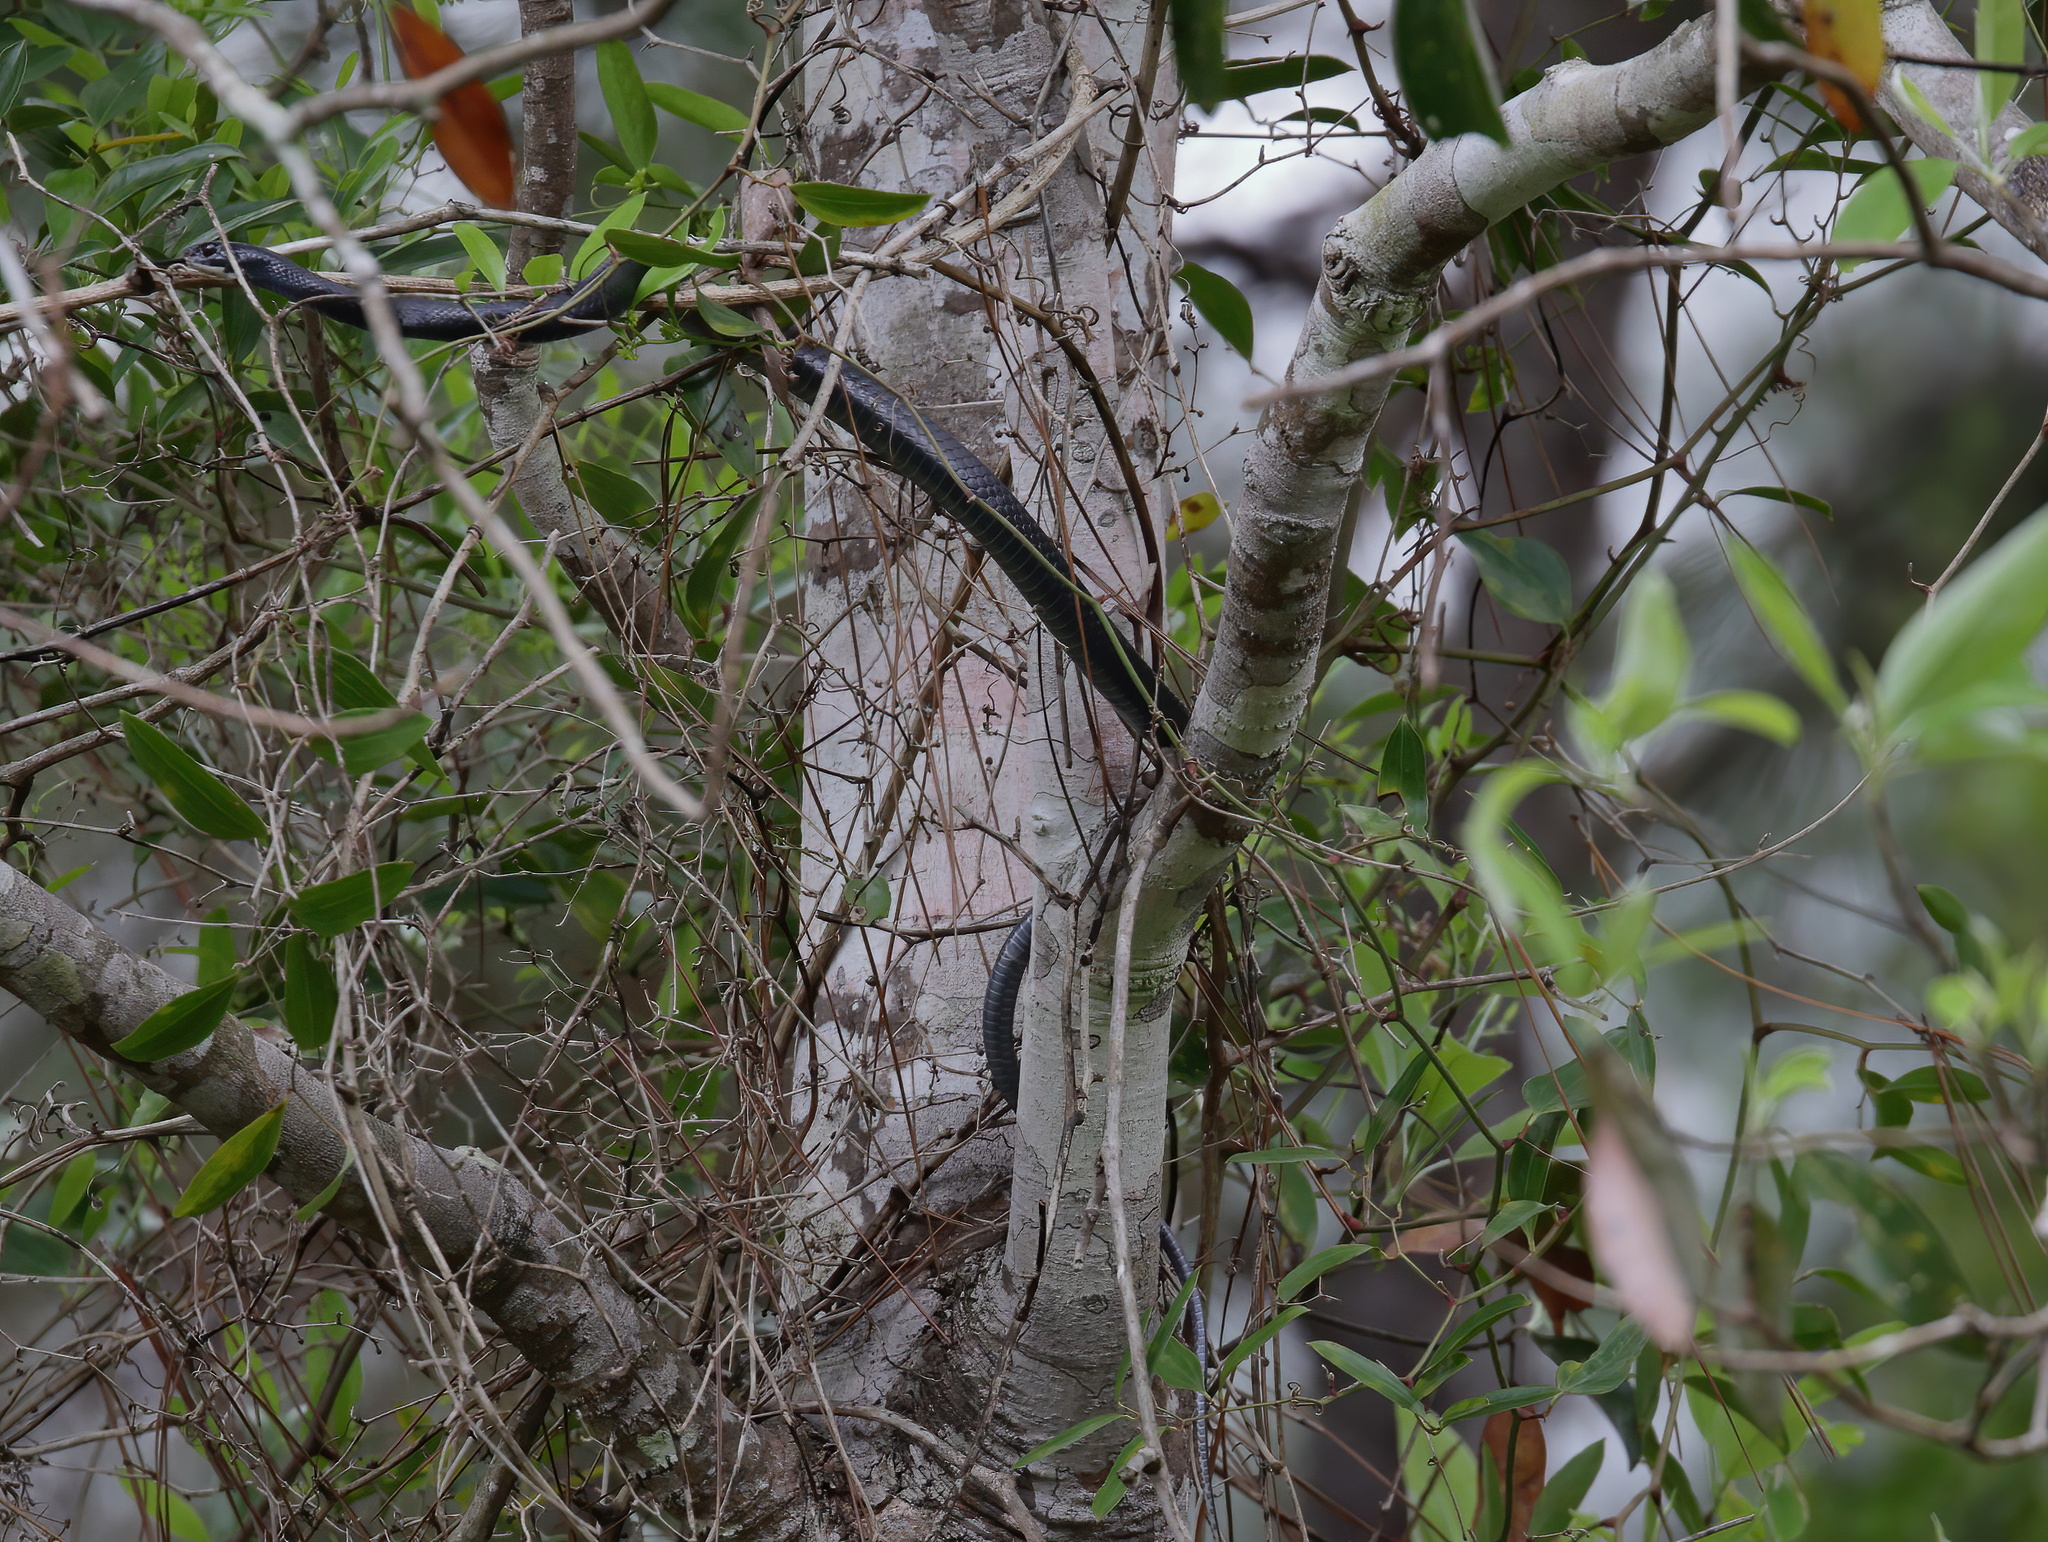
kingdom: Animalia
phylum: Chordata
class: Squamata
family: Colubridae
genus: Coluber
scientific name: Coluber constrictor
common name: Eastern racer
